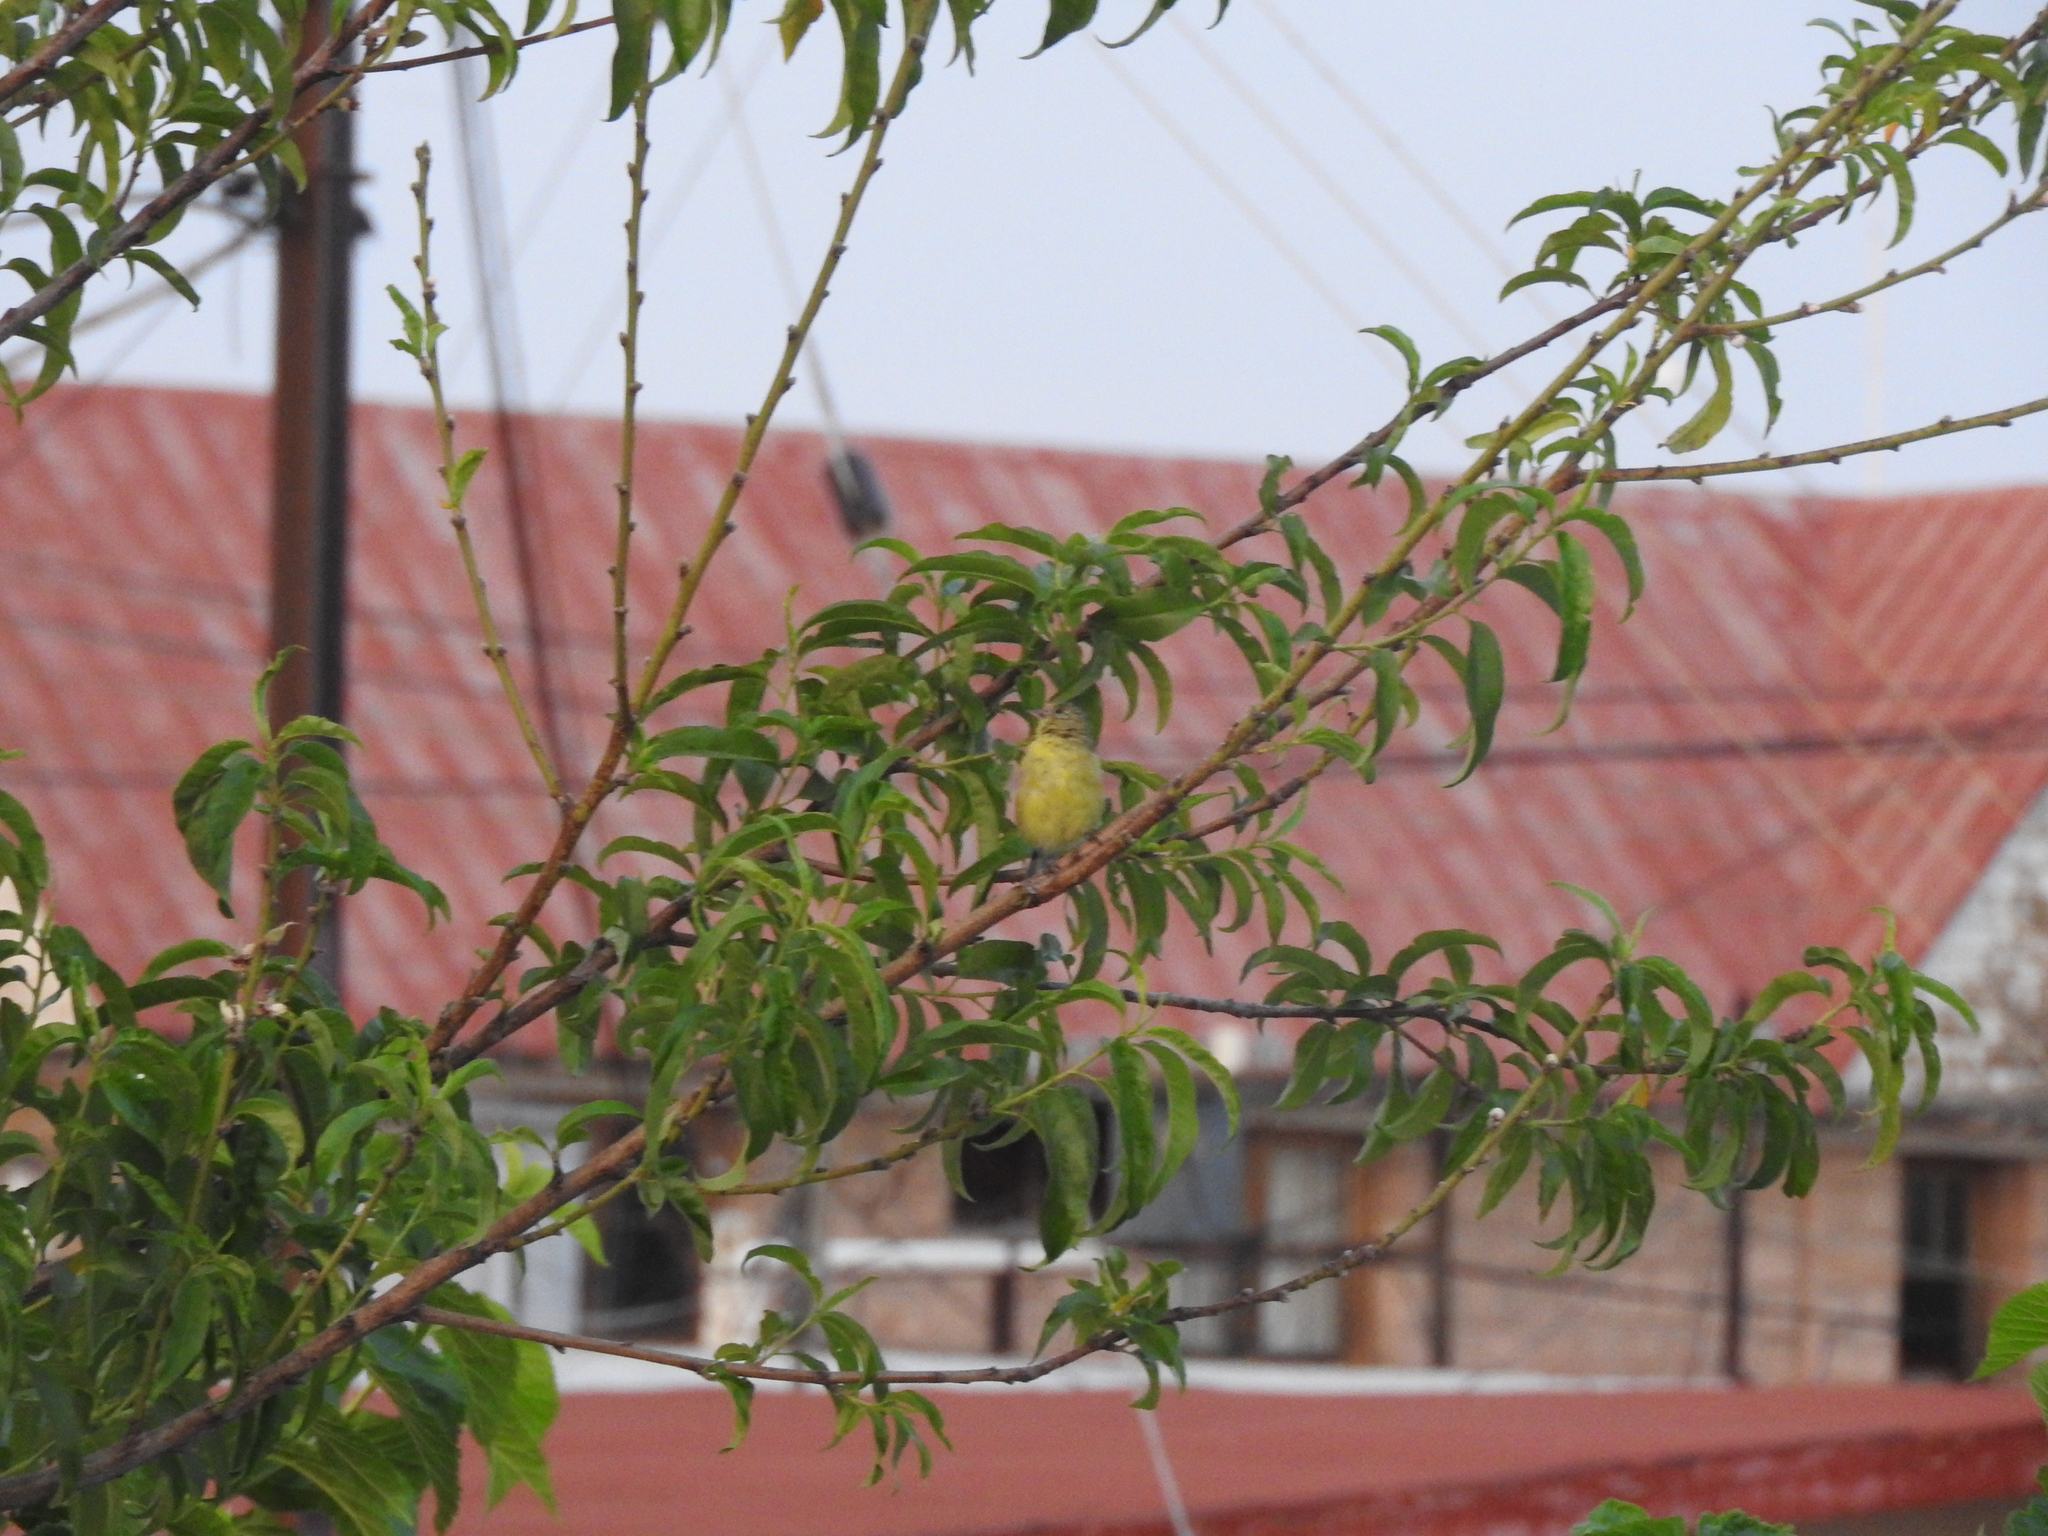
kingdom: Animalia
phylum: Chordata
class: Aves
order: Passeriformes
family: Fringillidae
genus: Spinus
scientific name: Spinus psaltria
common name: Lesser goldfinch
